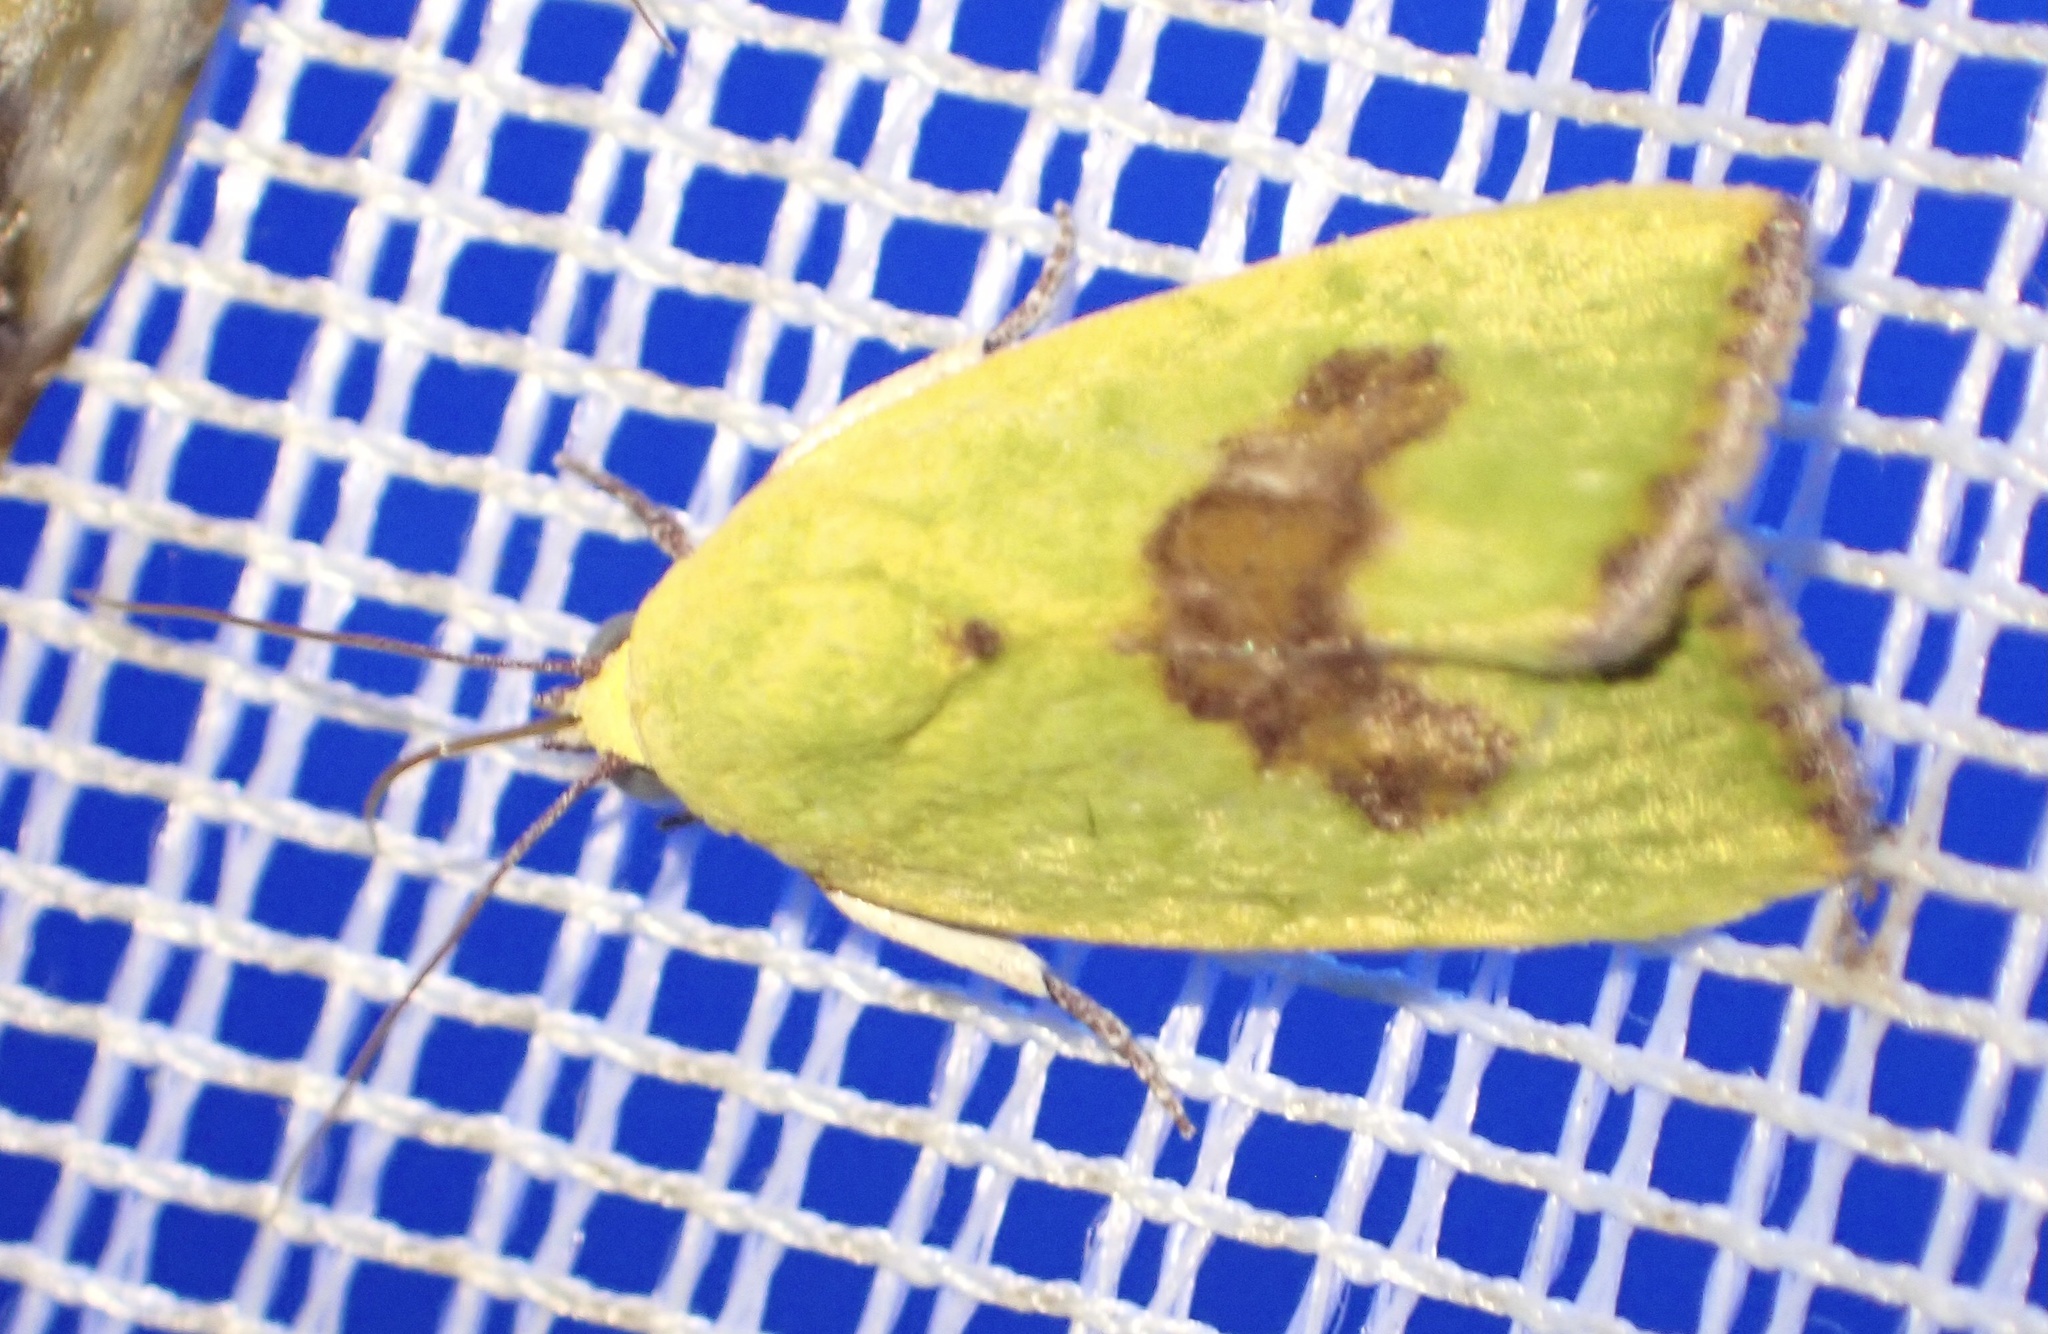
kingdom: Animalia
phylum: Arthropoda
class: Insecta
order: Lepidoptera
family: Nolidae
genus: Earias
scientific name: Earias biplaga
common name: Spiny bollworm
